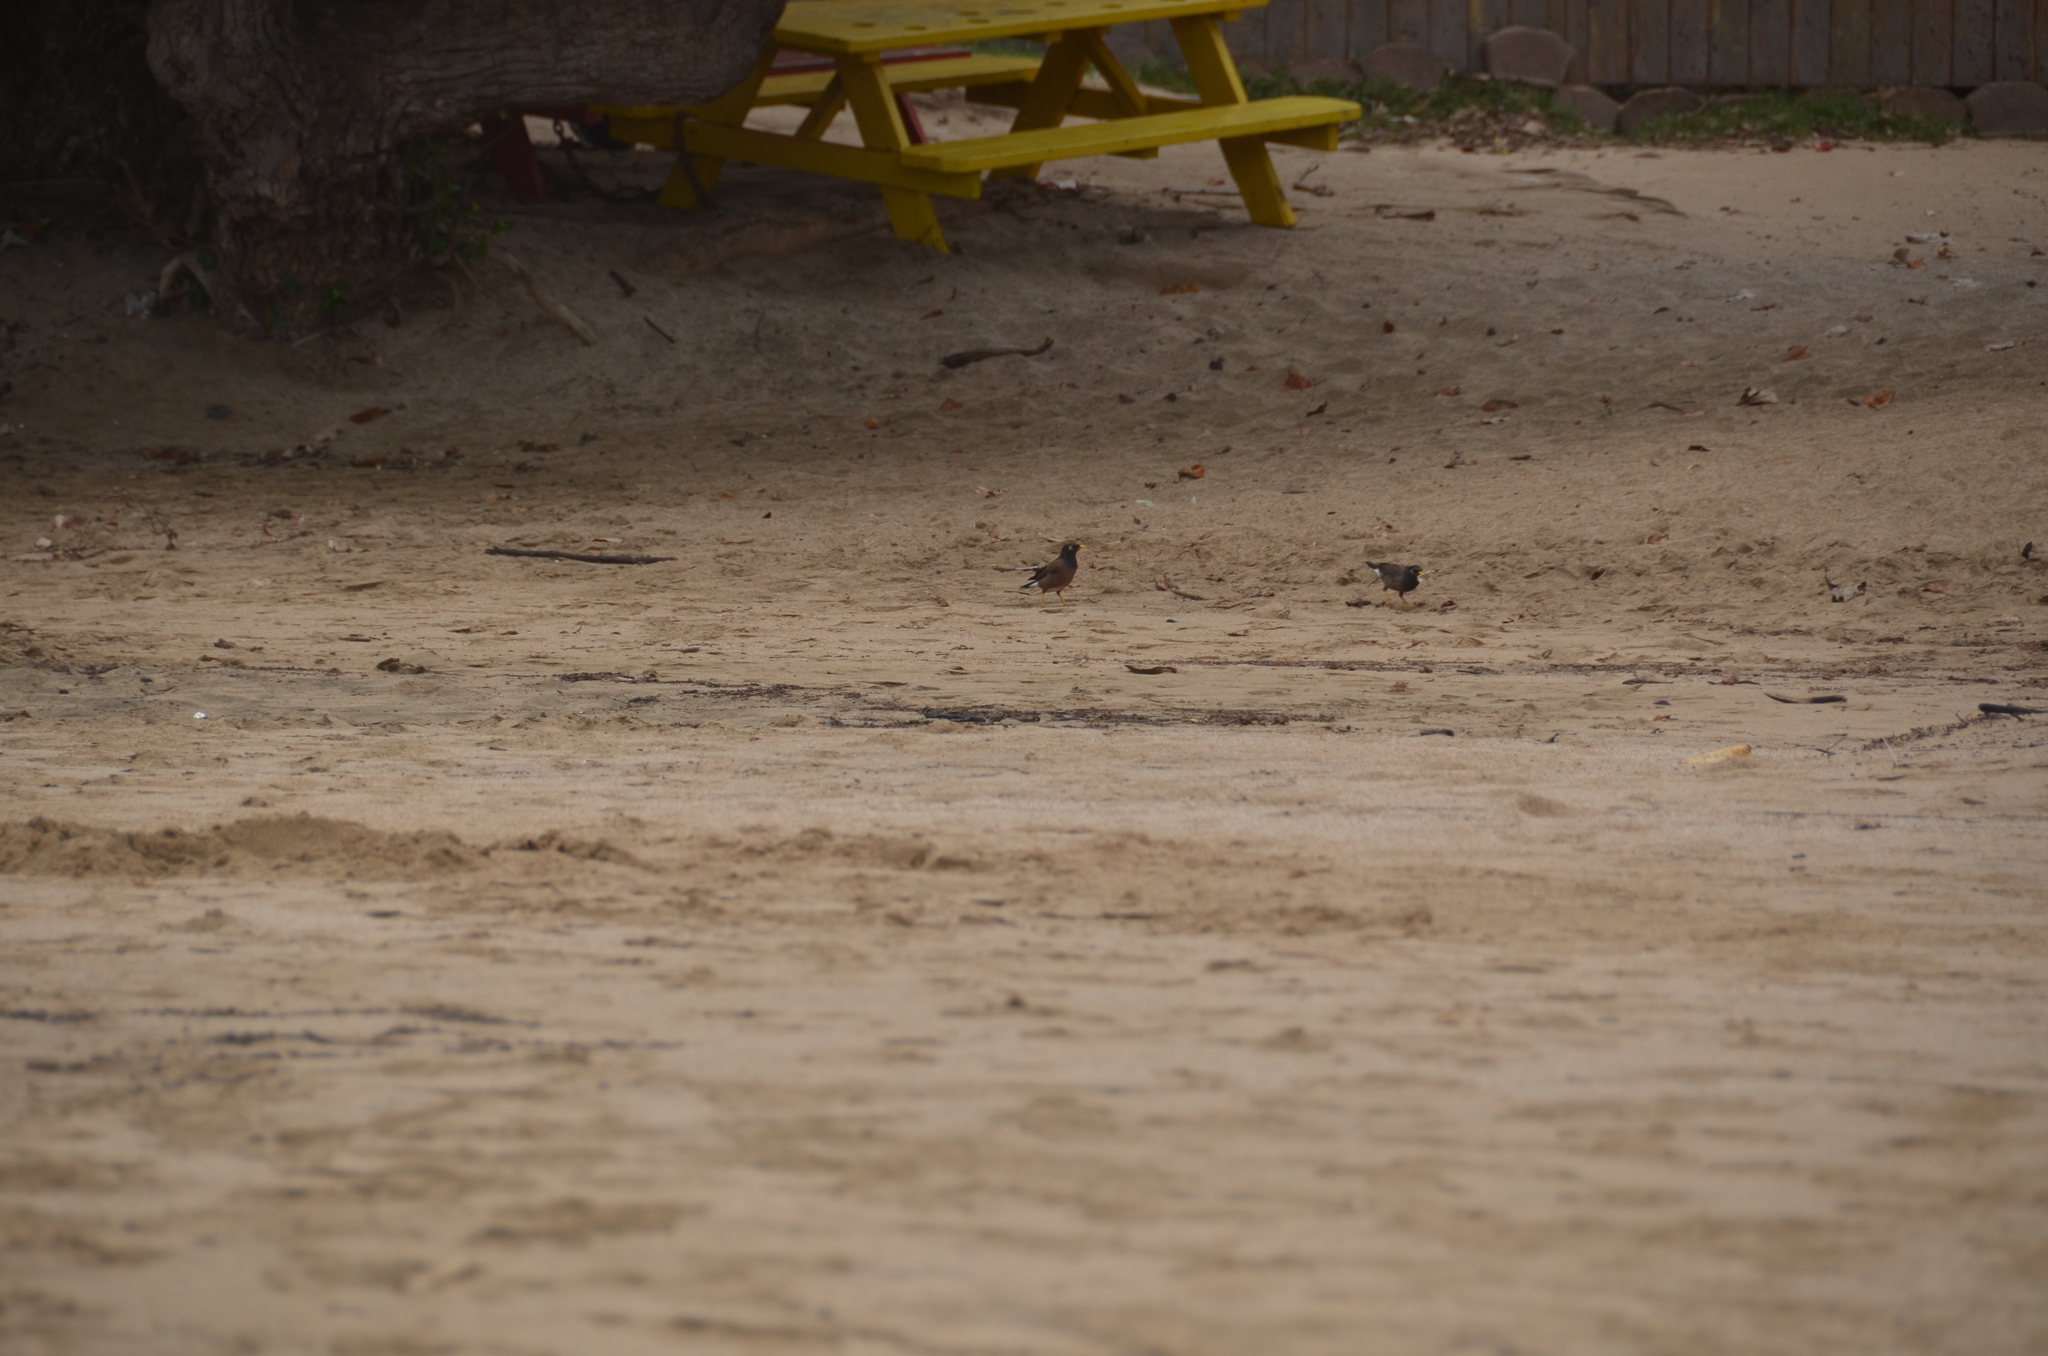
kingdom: Animalia
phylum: Chordata
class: Aves
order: Passeriformes
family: Sturnidae
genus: Acridotheres
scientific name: Acridotheres tristis
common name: Common myna
